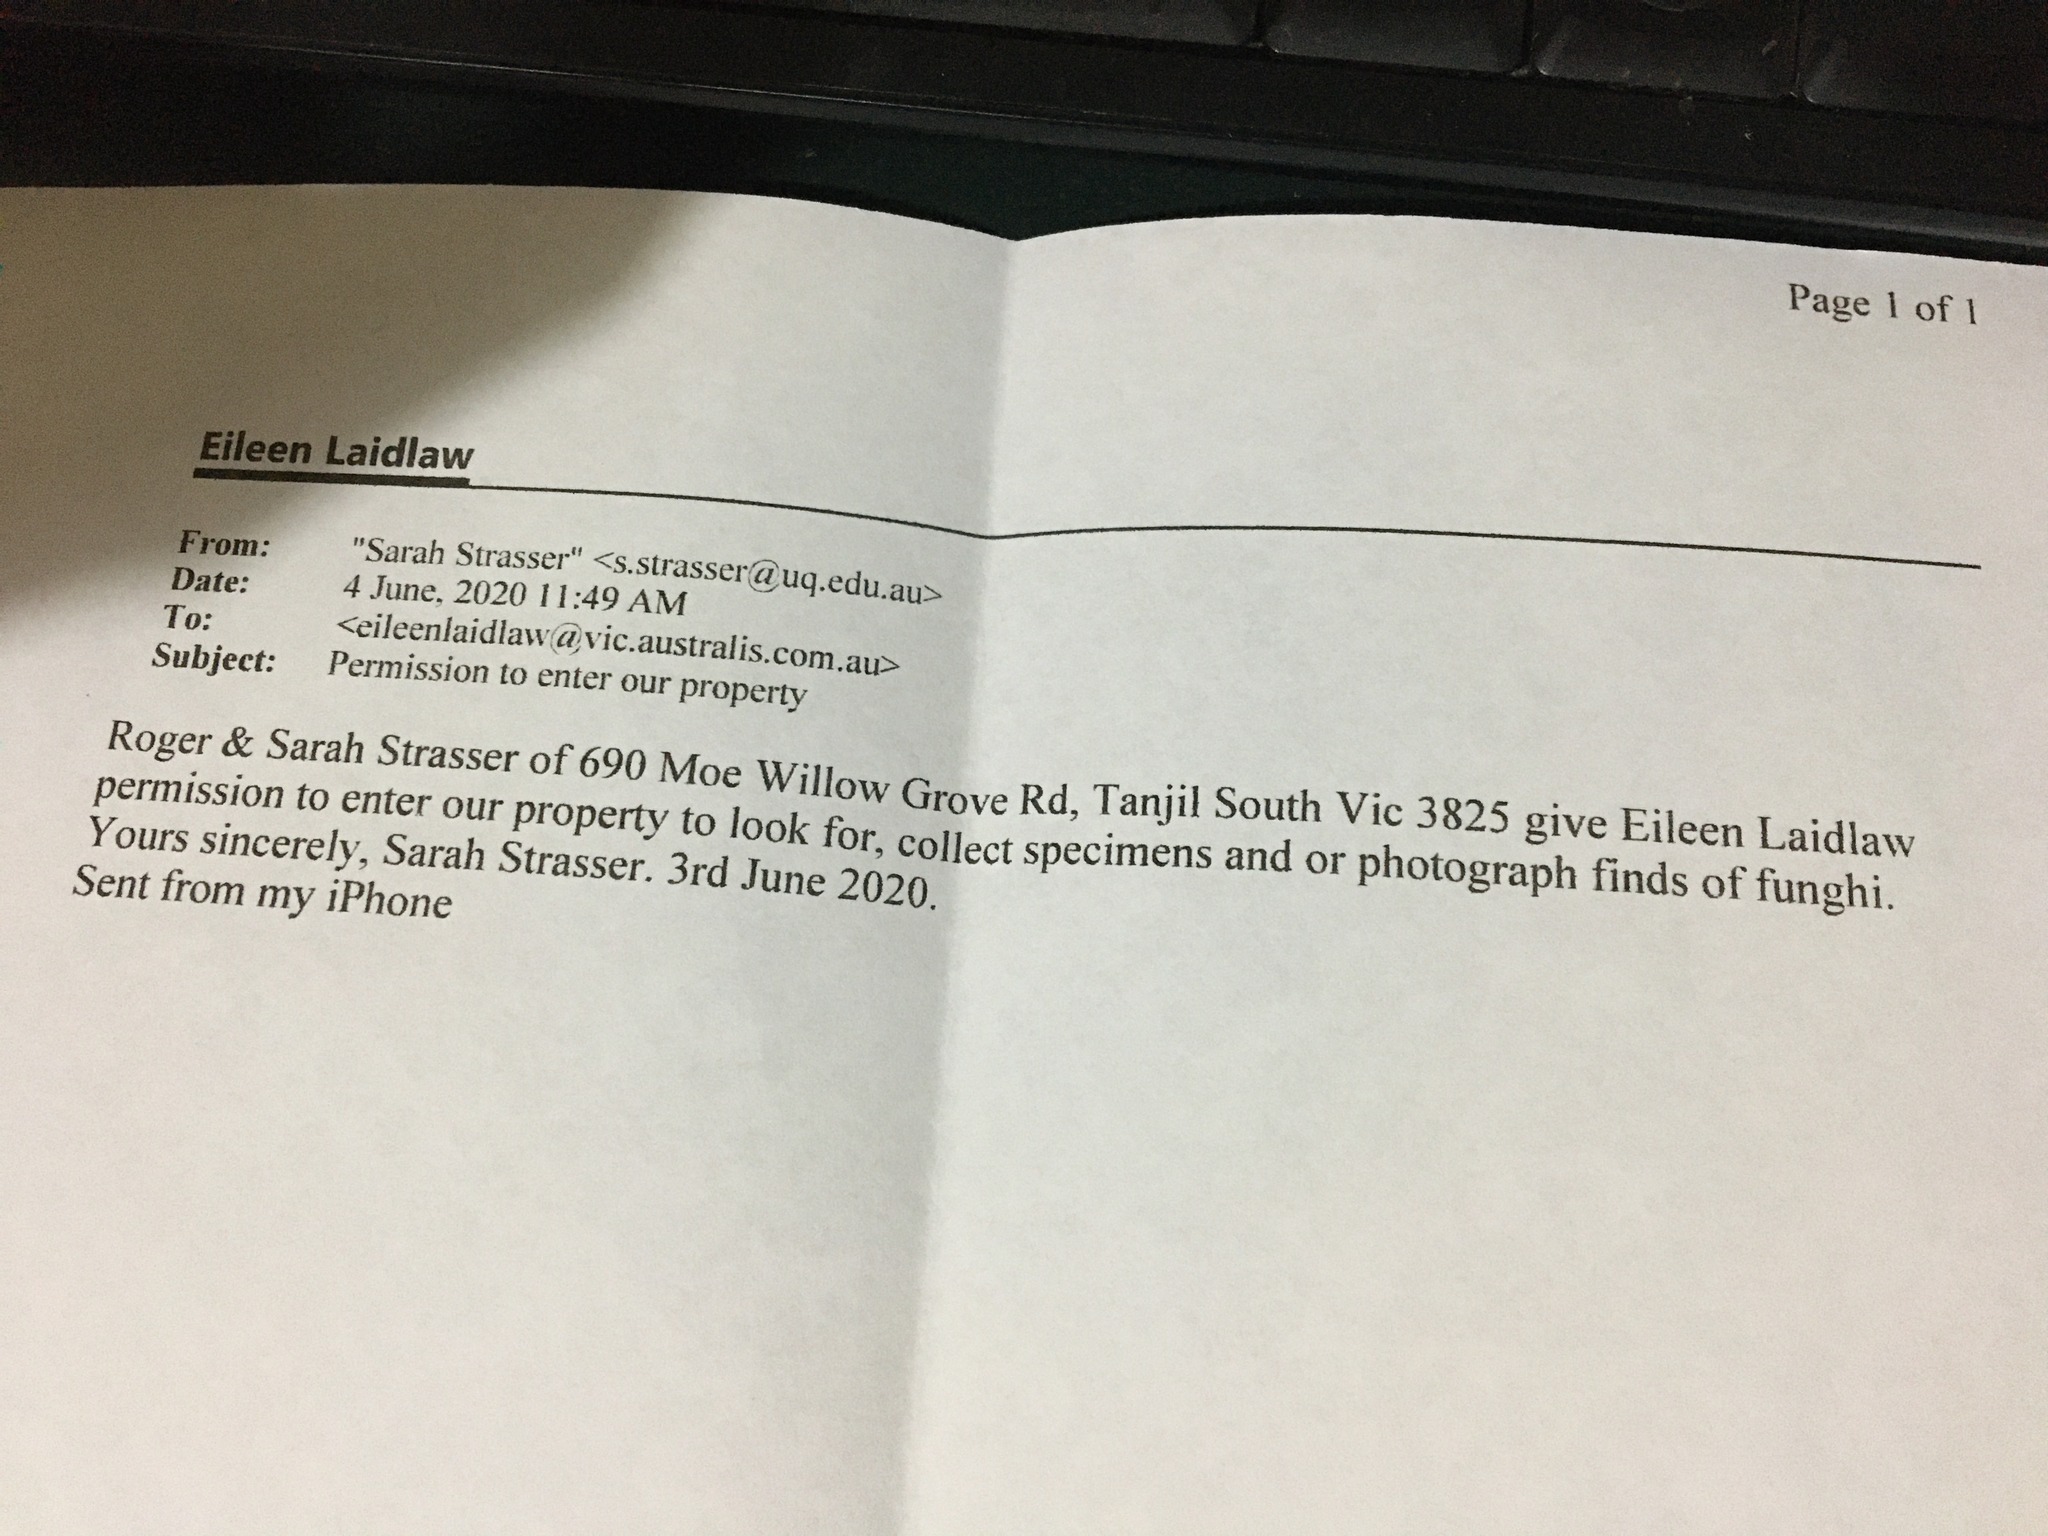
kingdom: Fungi
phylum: Basidiomycota
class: Agaricomycetes
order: Boletales
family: Boletaceae
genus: Boletellus
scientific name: Boletellus dissiliens
